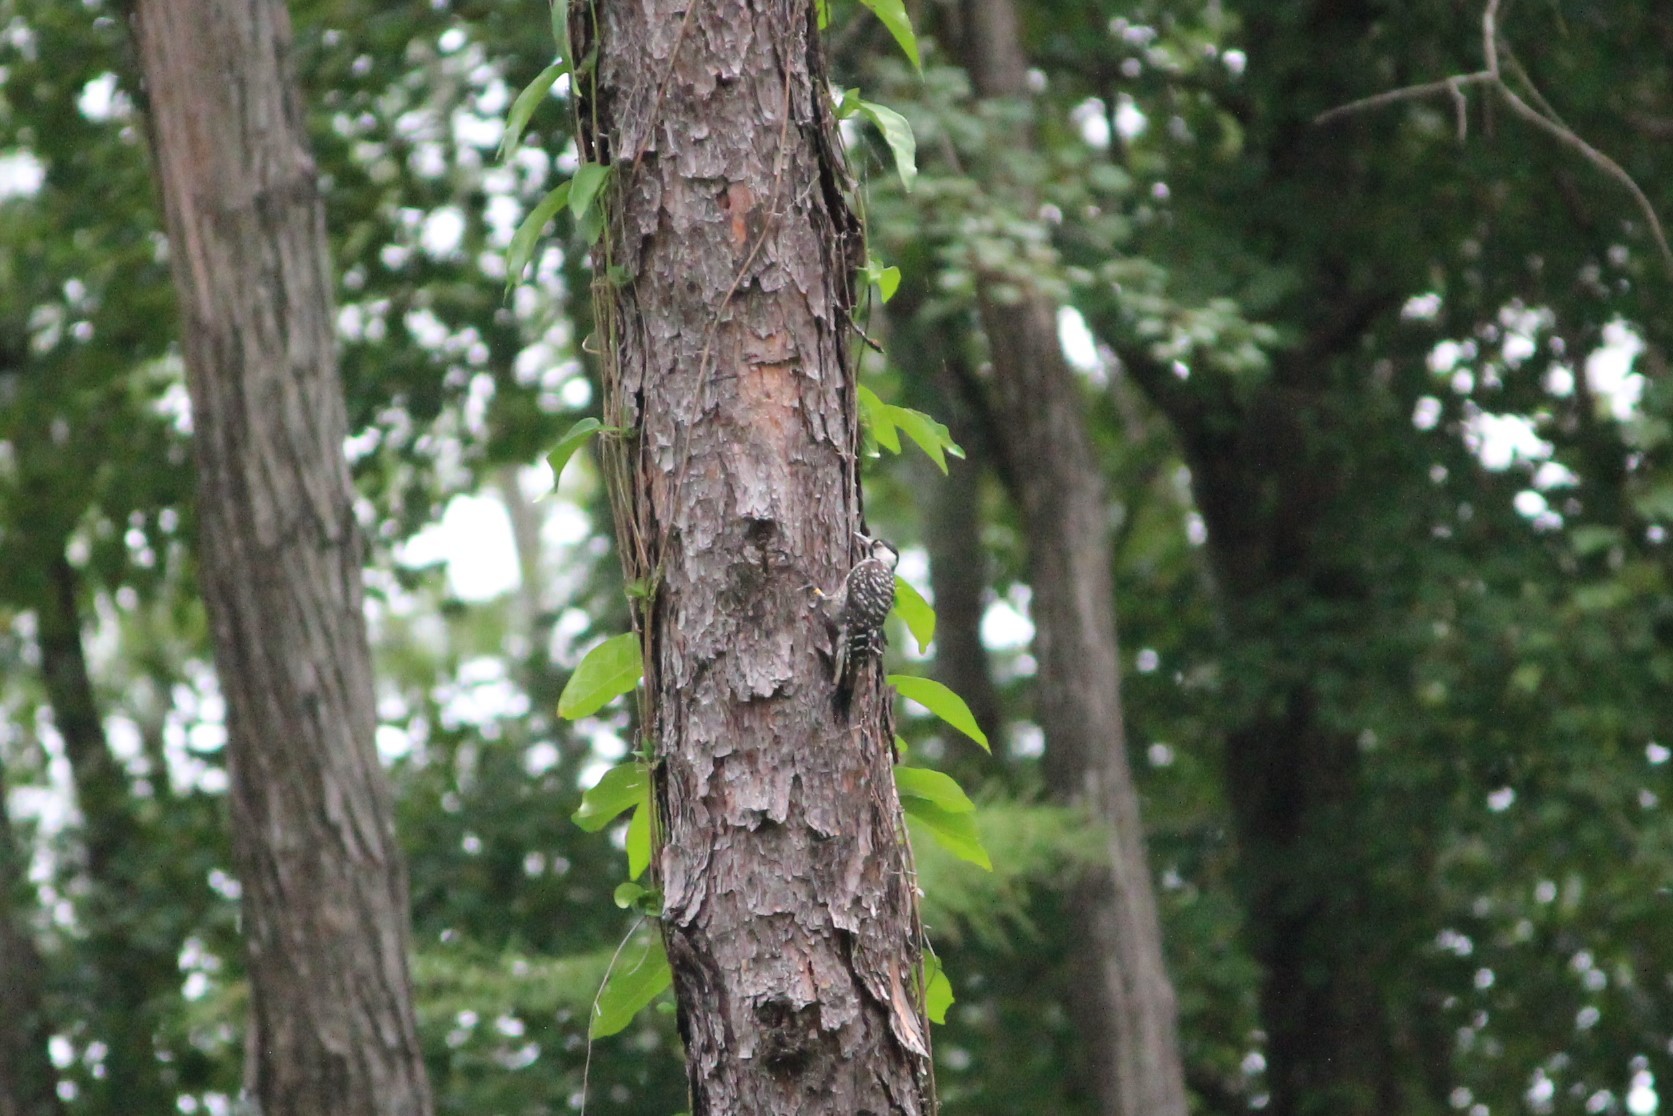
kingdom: Animalia
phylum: Chordata
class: Aves
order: Piciformes
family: Picidae
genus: Leuconotopicus
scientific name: Leuconotopicus borealis
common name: Red-cockaded woodpecker
